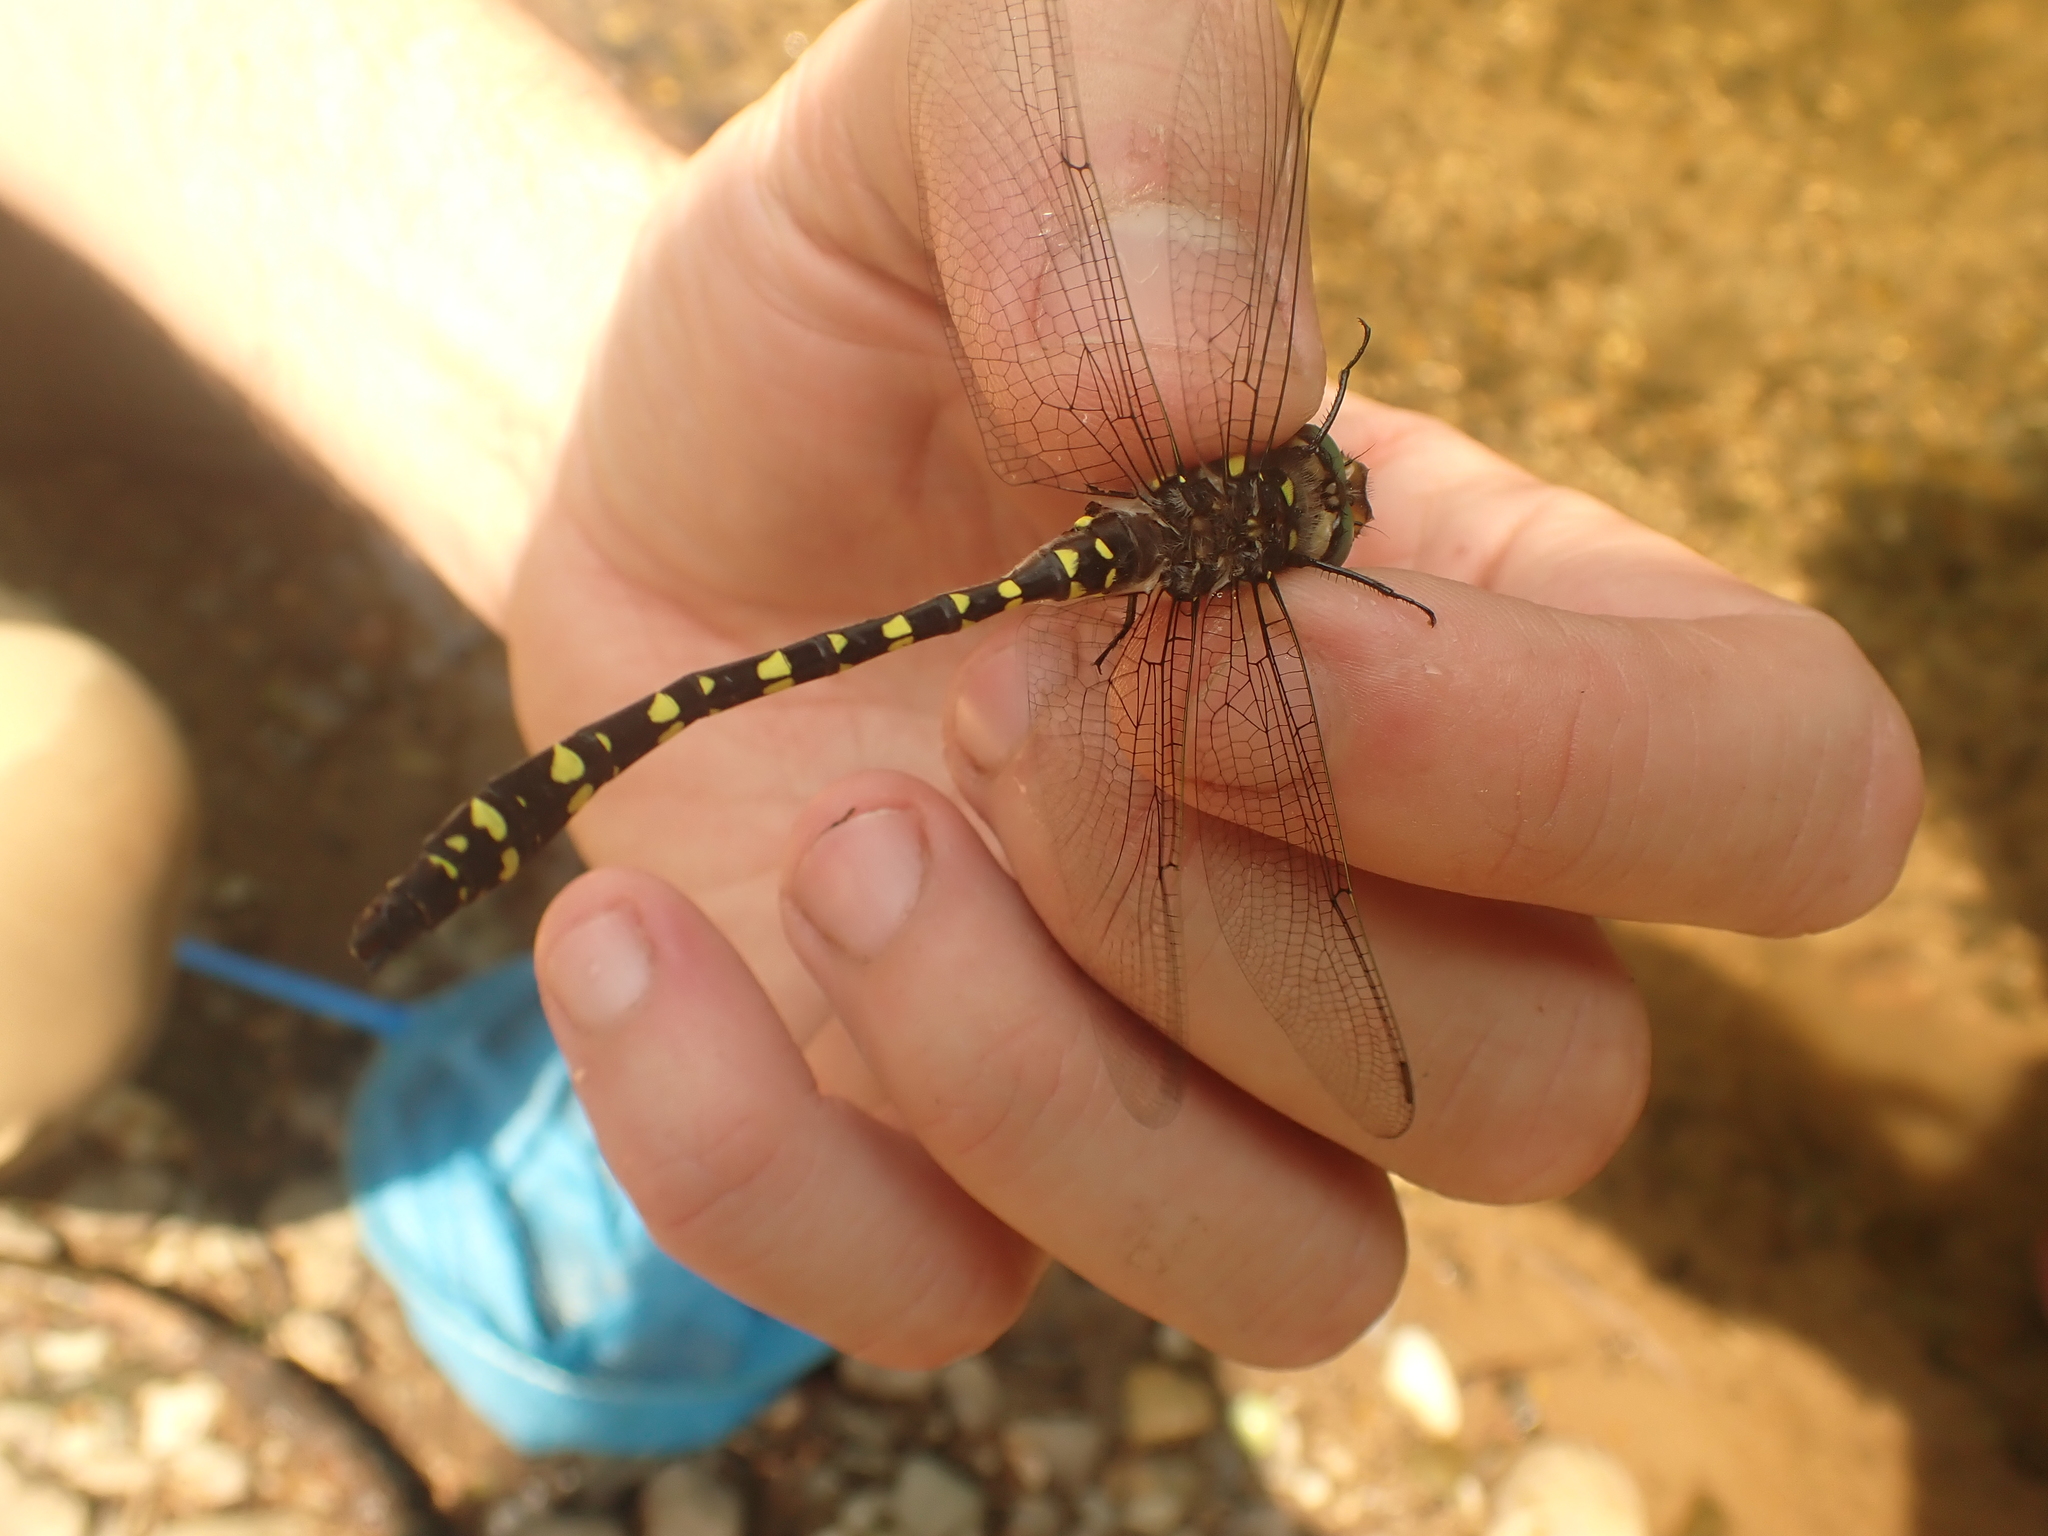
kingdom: Animalia
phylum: Arthropoda
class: Insecta
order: Odonata
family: Cordulegastridae
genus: Cordulegaster
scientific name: Cordulegaster maculata
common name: Twin-spotted spiketail
